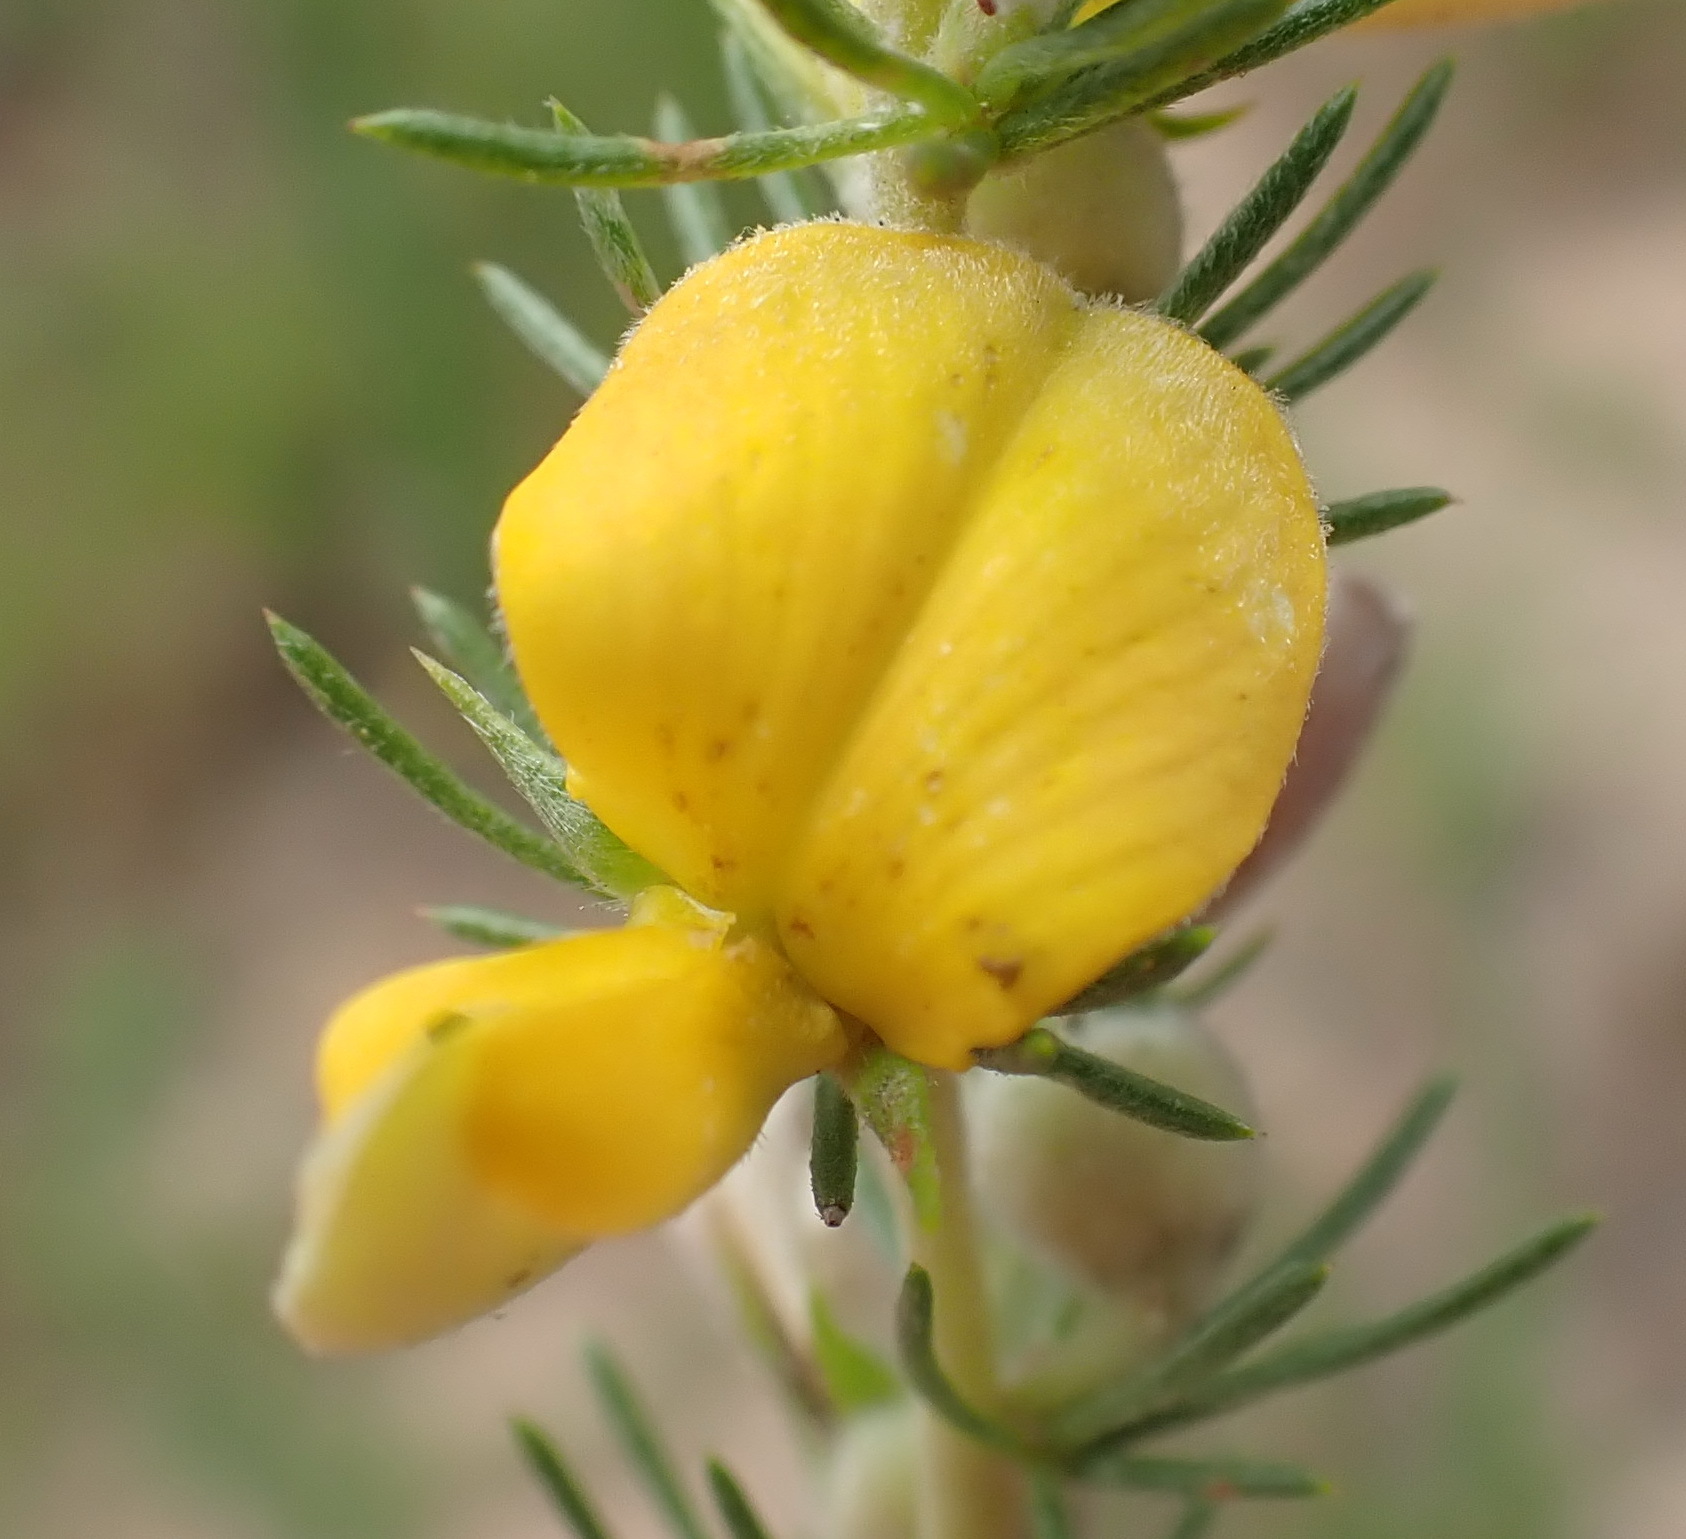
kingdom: Plantae
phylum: Tracheophyta
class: Magnoliopsida
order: Fabales
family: Fabaceae
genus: Aspalathus
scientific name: Aspalathus kougaensis
